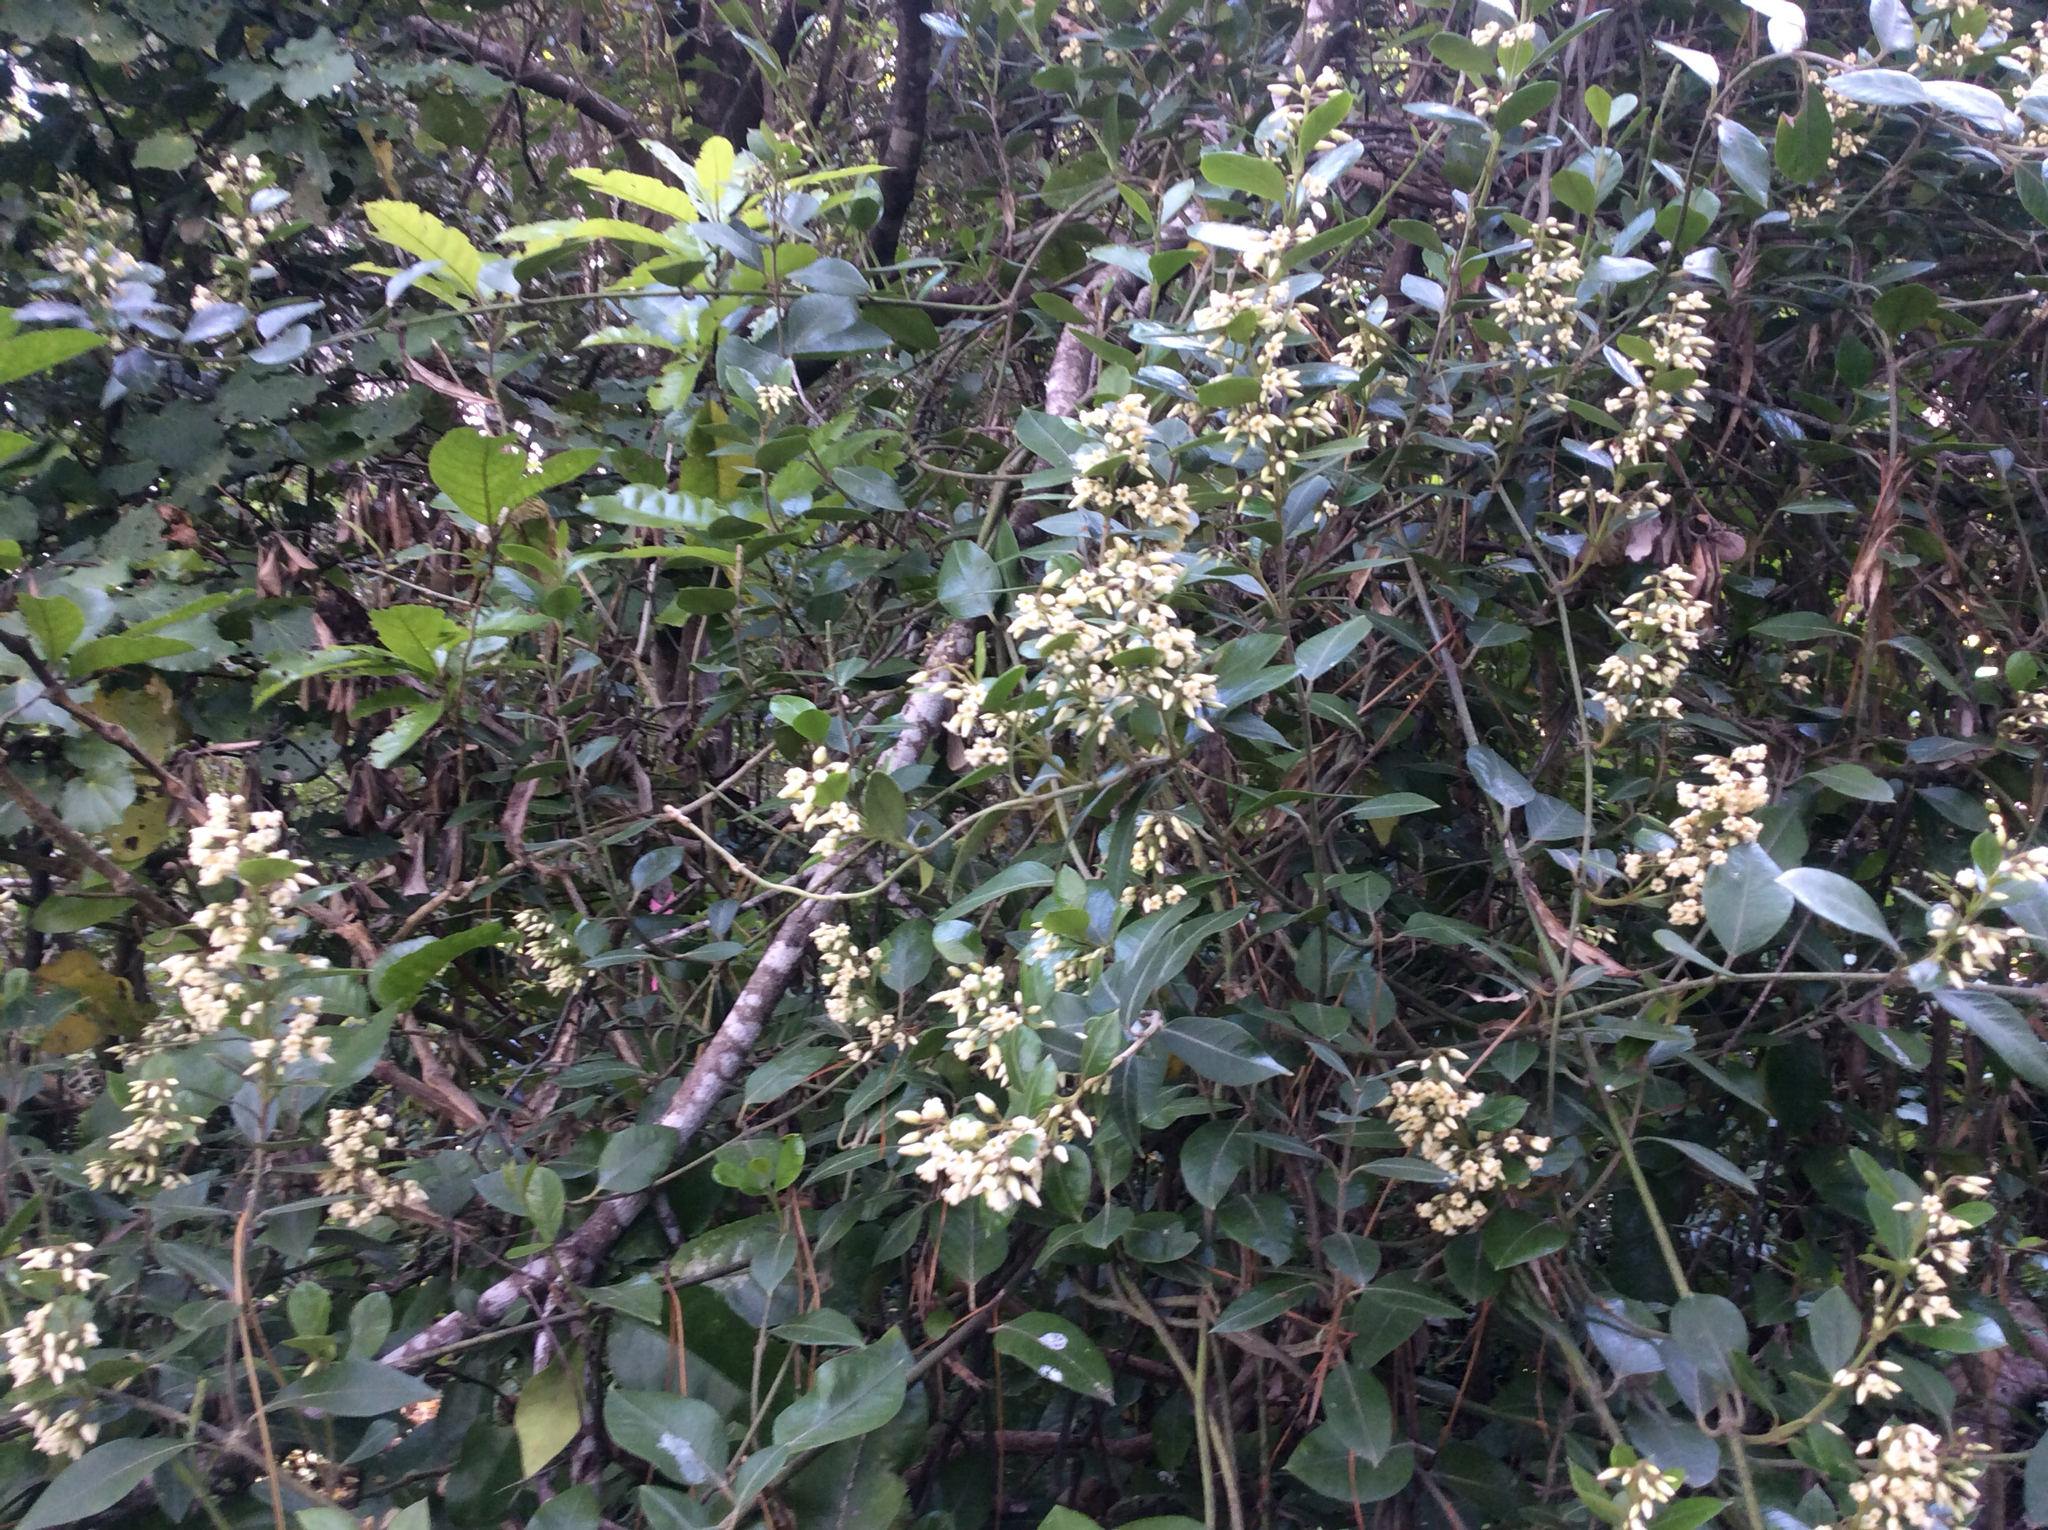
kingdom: Plantae
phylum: Tracheophyta
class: Magnoliopsida
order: Gentianales
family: Apocynaceae
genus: Parsonsia
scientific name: Parsonsia heterophylla
